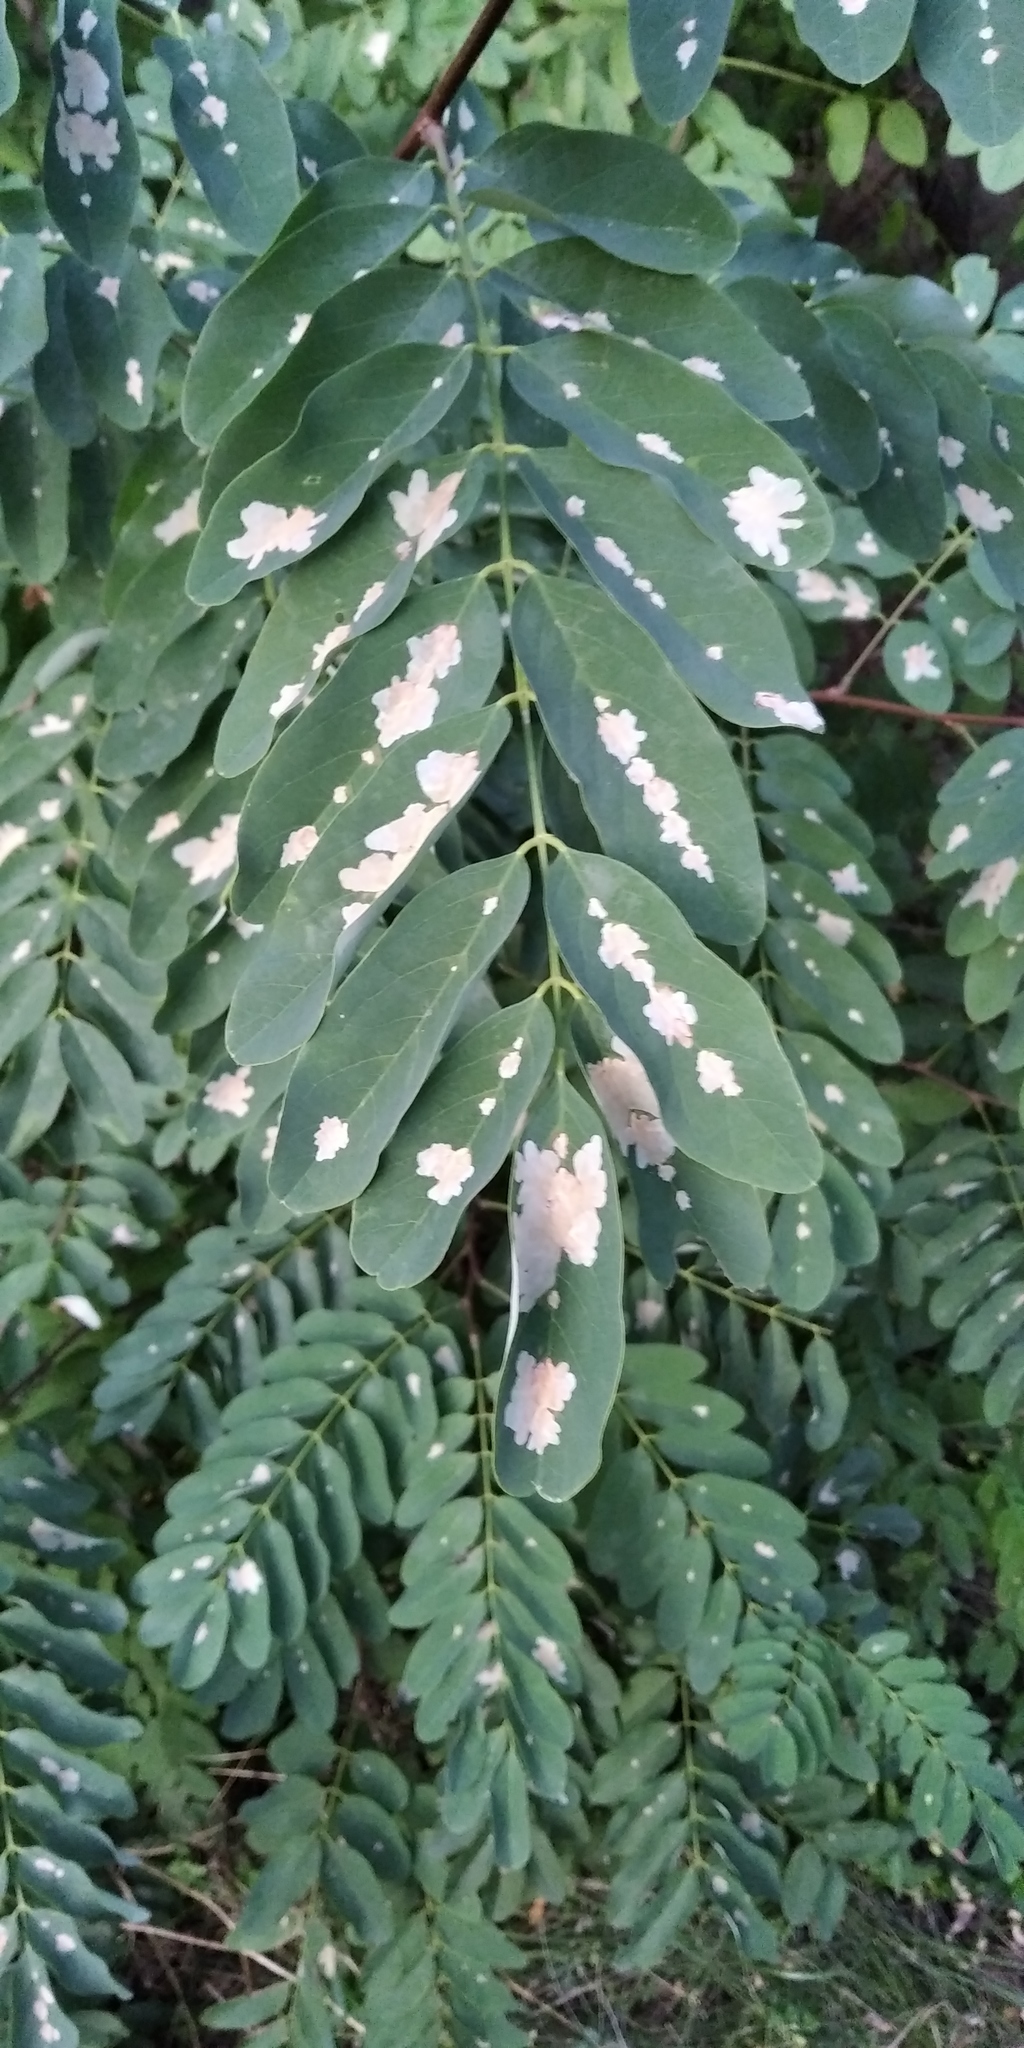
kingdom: Animalia
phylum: Arthropoda
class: Insecta
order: Lepidoptera
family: Gracillariidae
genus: Parectopa
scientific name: Parectopa robiniella
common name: Locust digitate leafminer
